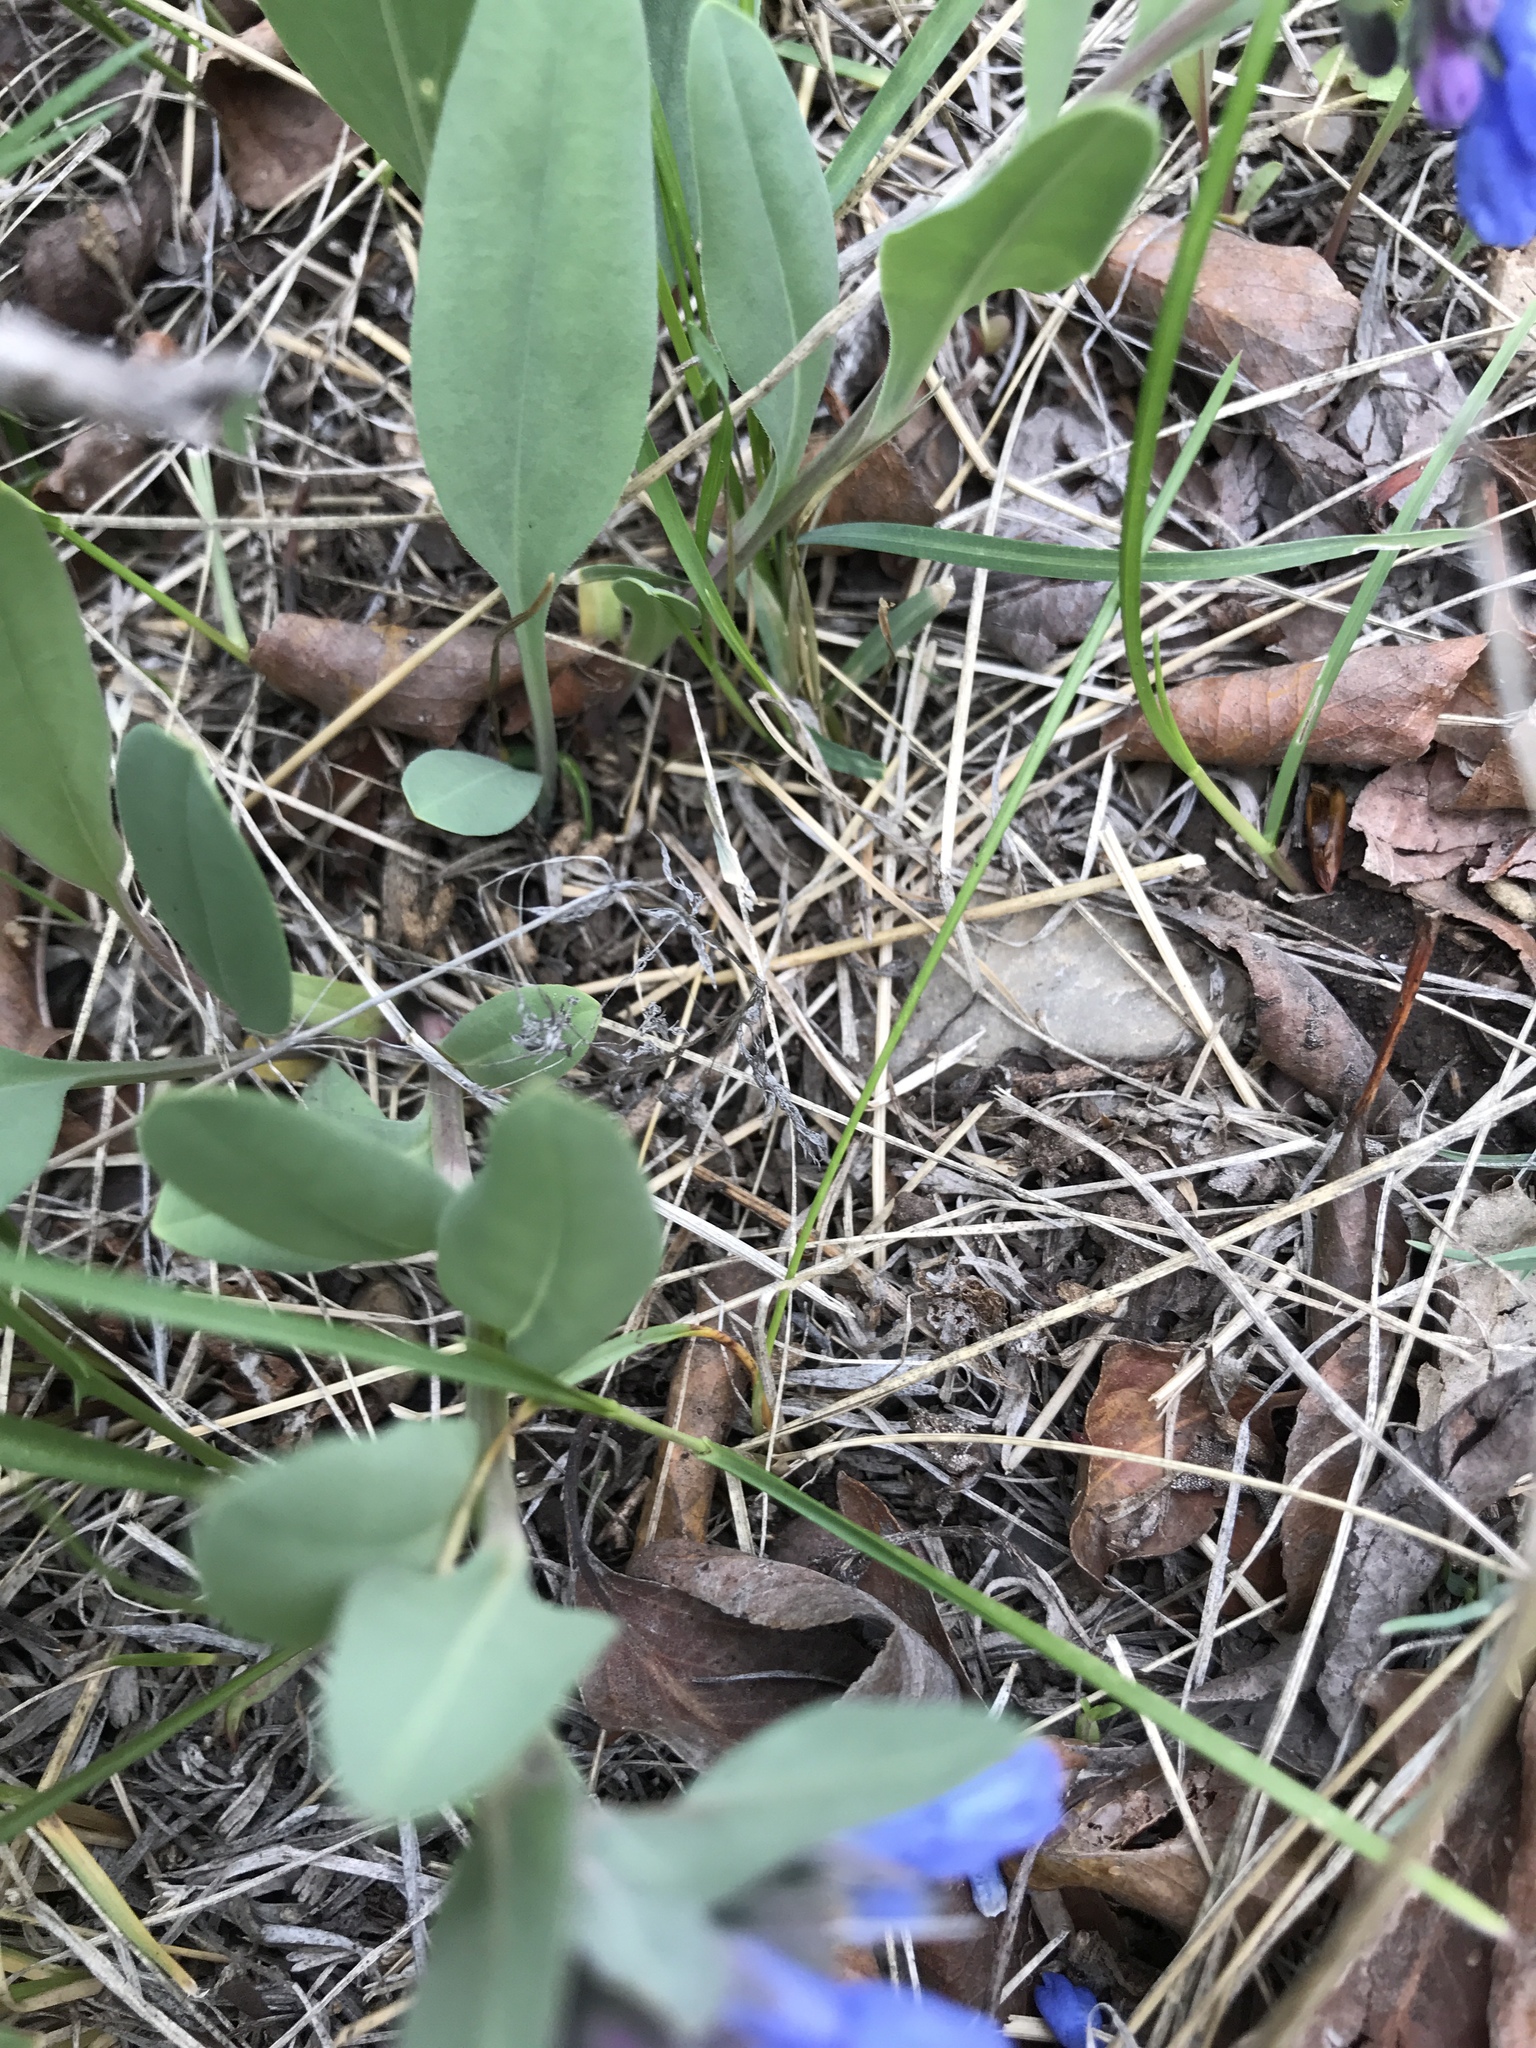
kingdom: Plantae
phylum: Tracheophyta
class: Magnoliopsida
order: Boraginales
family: Boraginaceae
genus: Mertensia
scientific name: Mertensia oblongifolia
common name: Sagebrush bluebells
